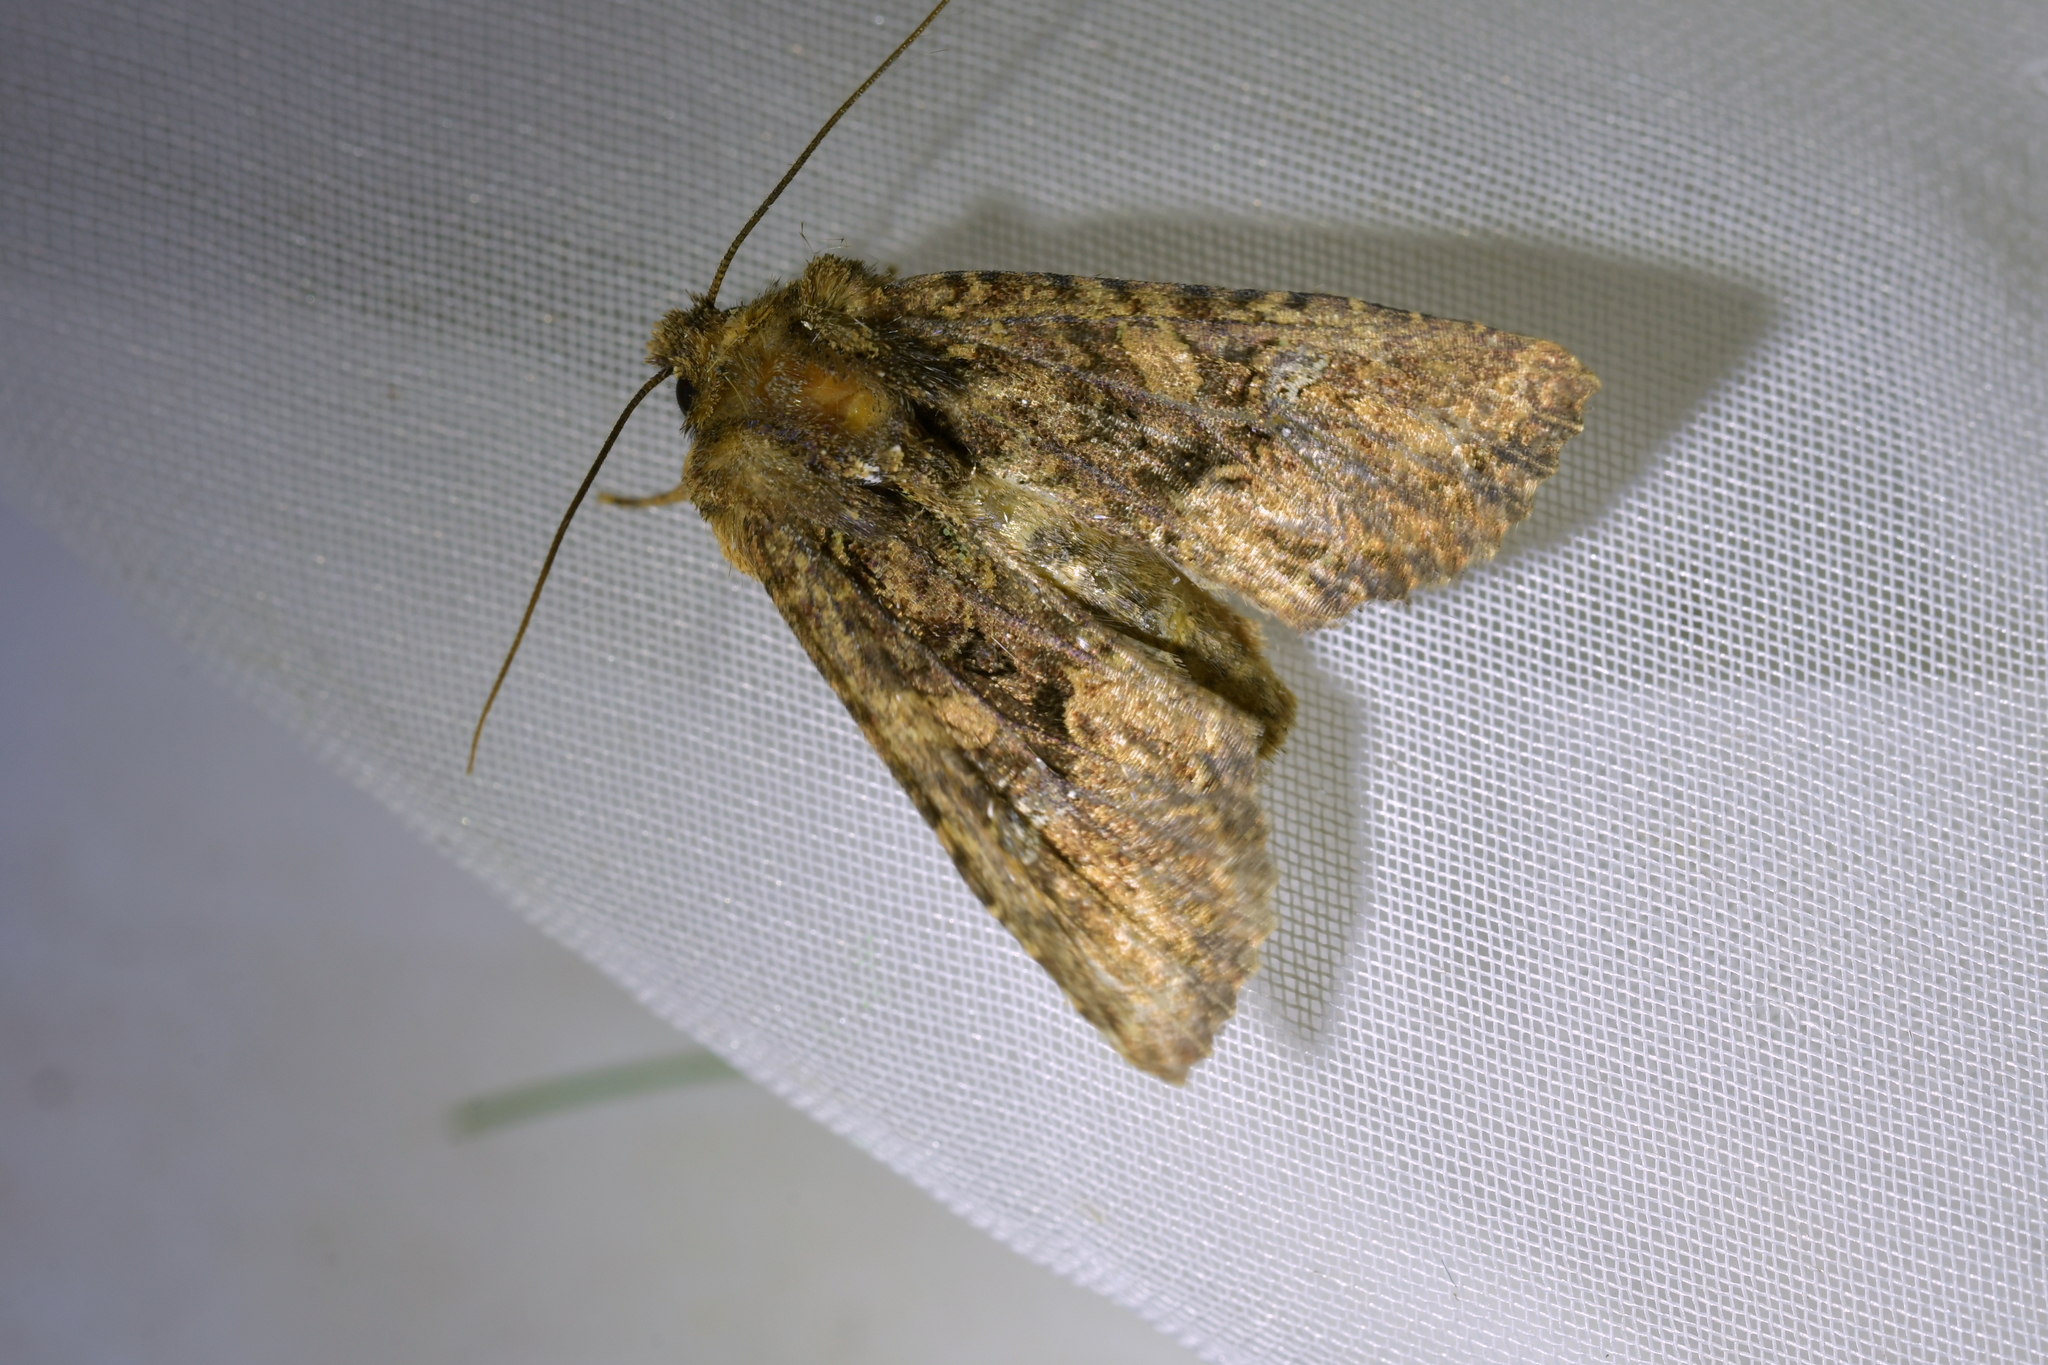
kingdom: Animalia
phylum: Arthropoda
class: Insecta
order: Lepidoptera
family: Noctuidae
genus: Meterana
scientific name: Meterana ochthistis
